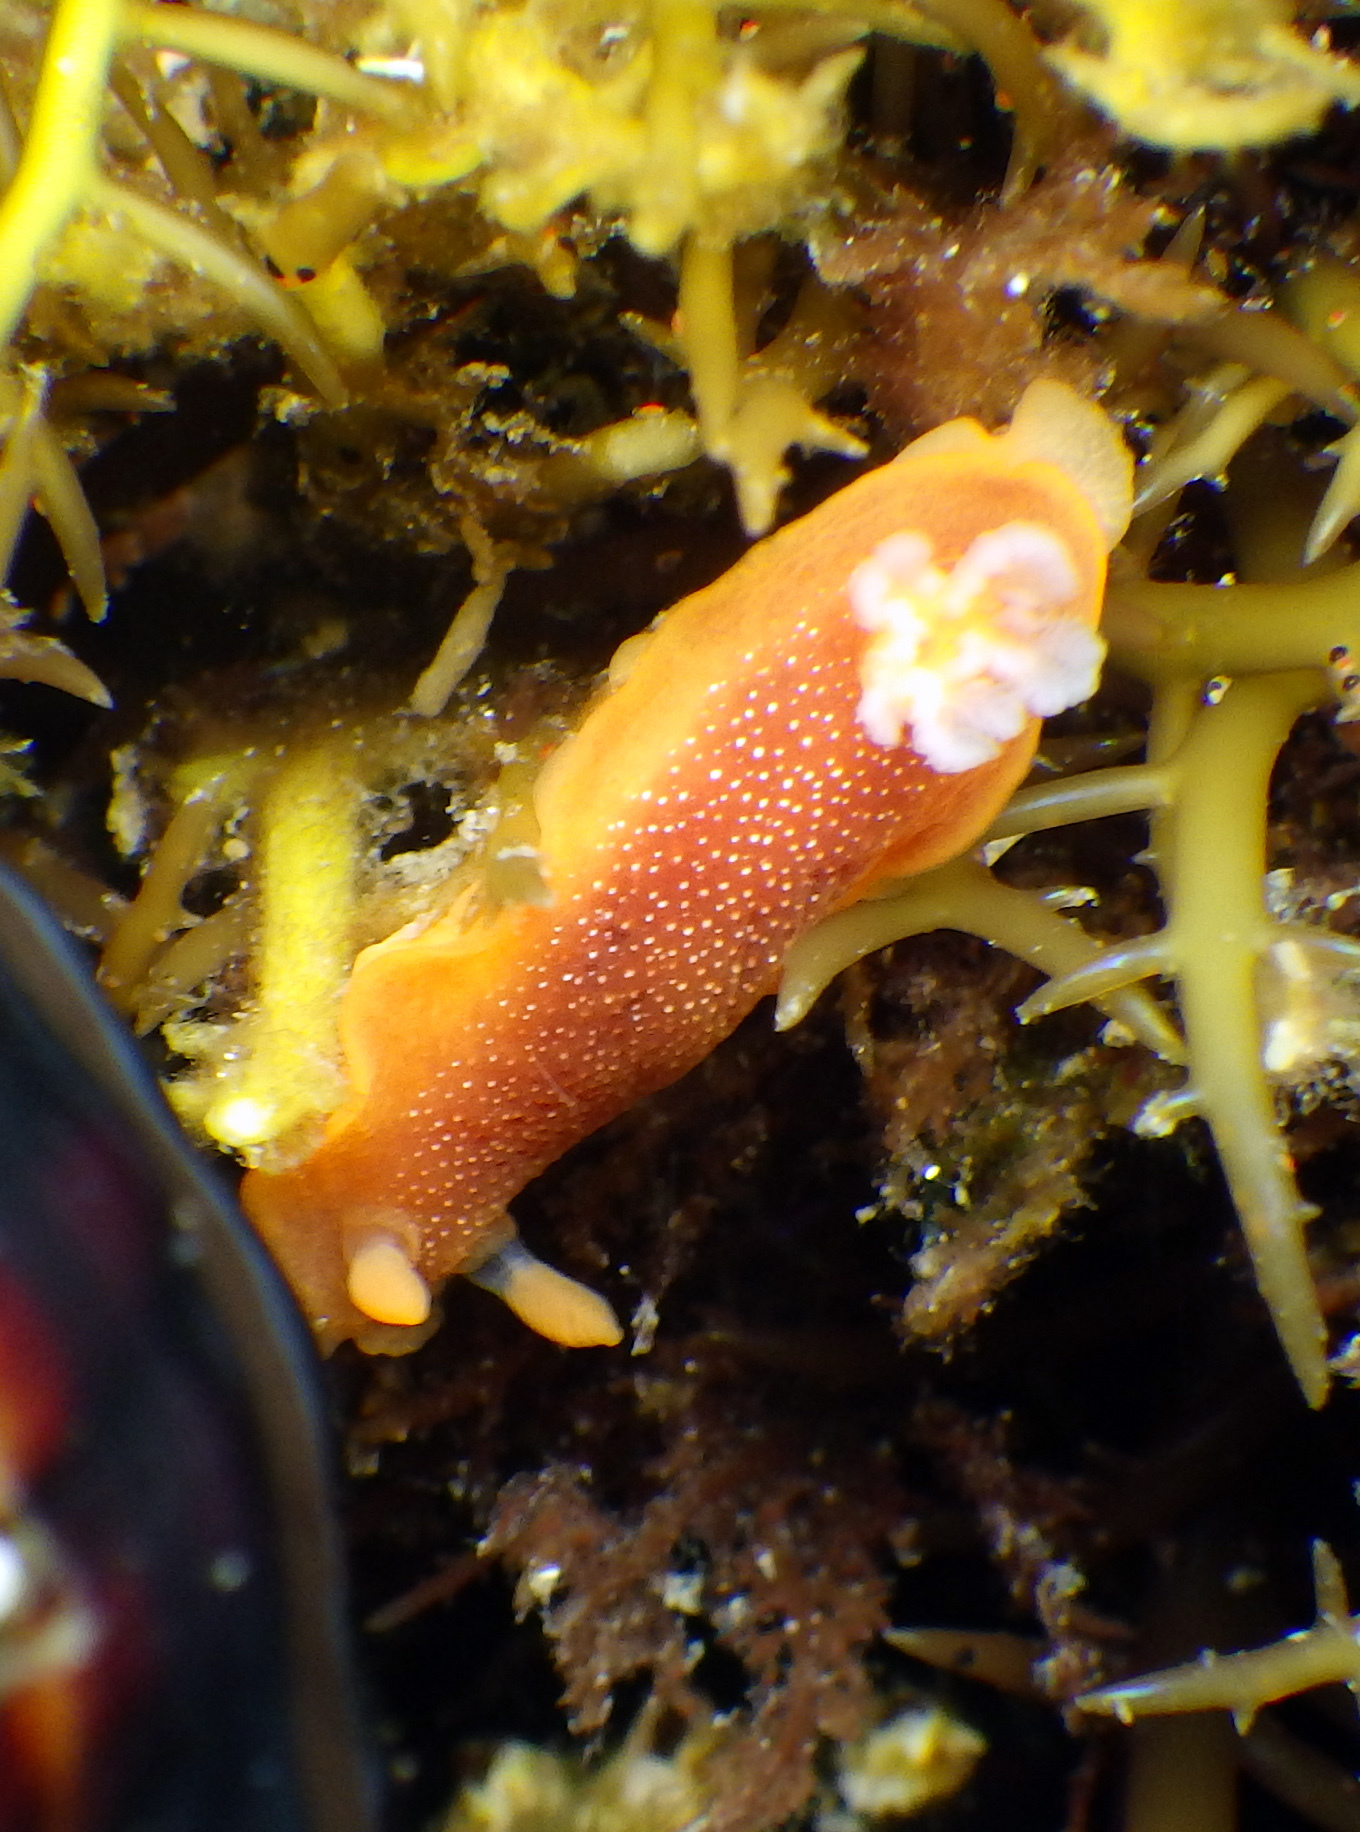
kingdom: Animalia
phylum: Mollusca
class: Gastropoda
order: Nudibranchia
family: Dendrodorididae
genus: Doriopsilla
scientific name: Doriopsilla albopunctata
